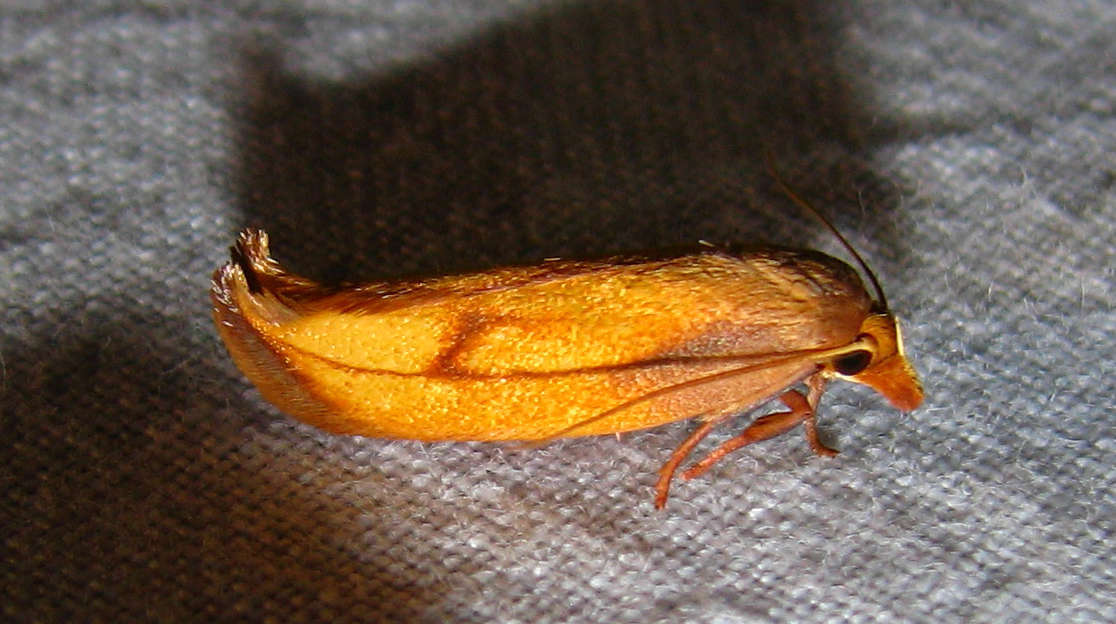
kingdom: Animalia
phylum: Arthropoda
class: Insecta
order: Lepidoptera
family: Oecophoridae
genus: Wingia
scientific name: Wingia aurata
